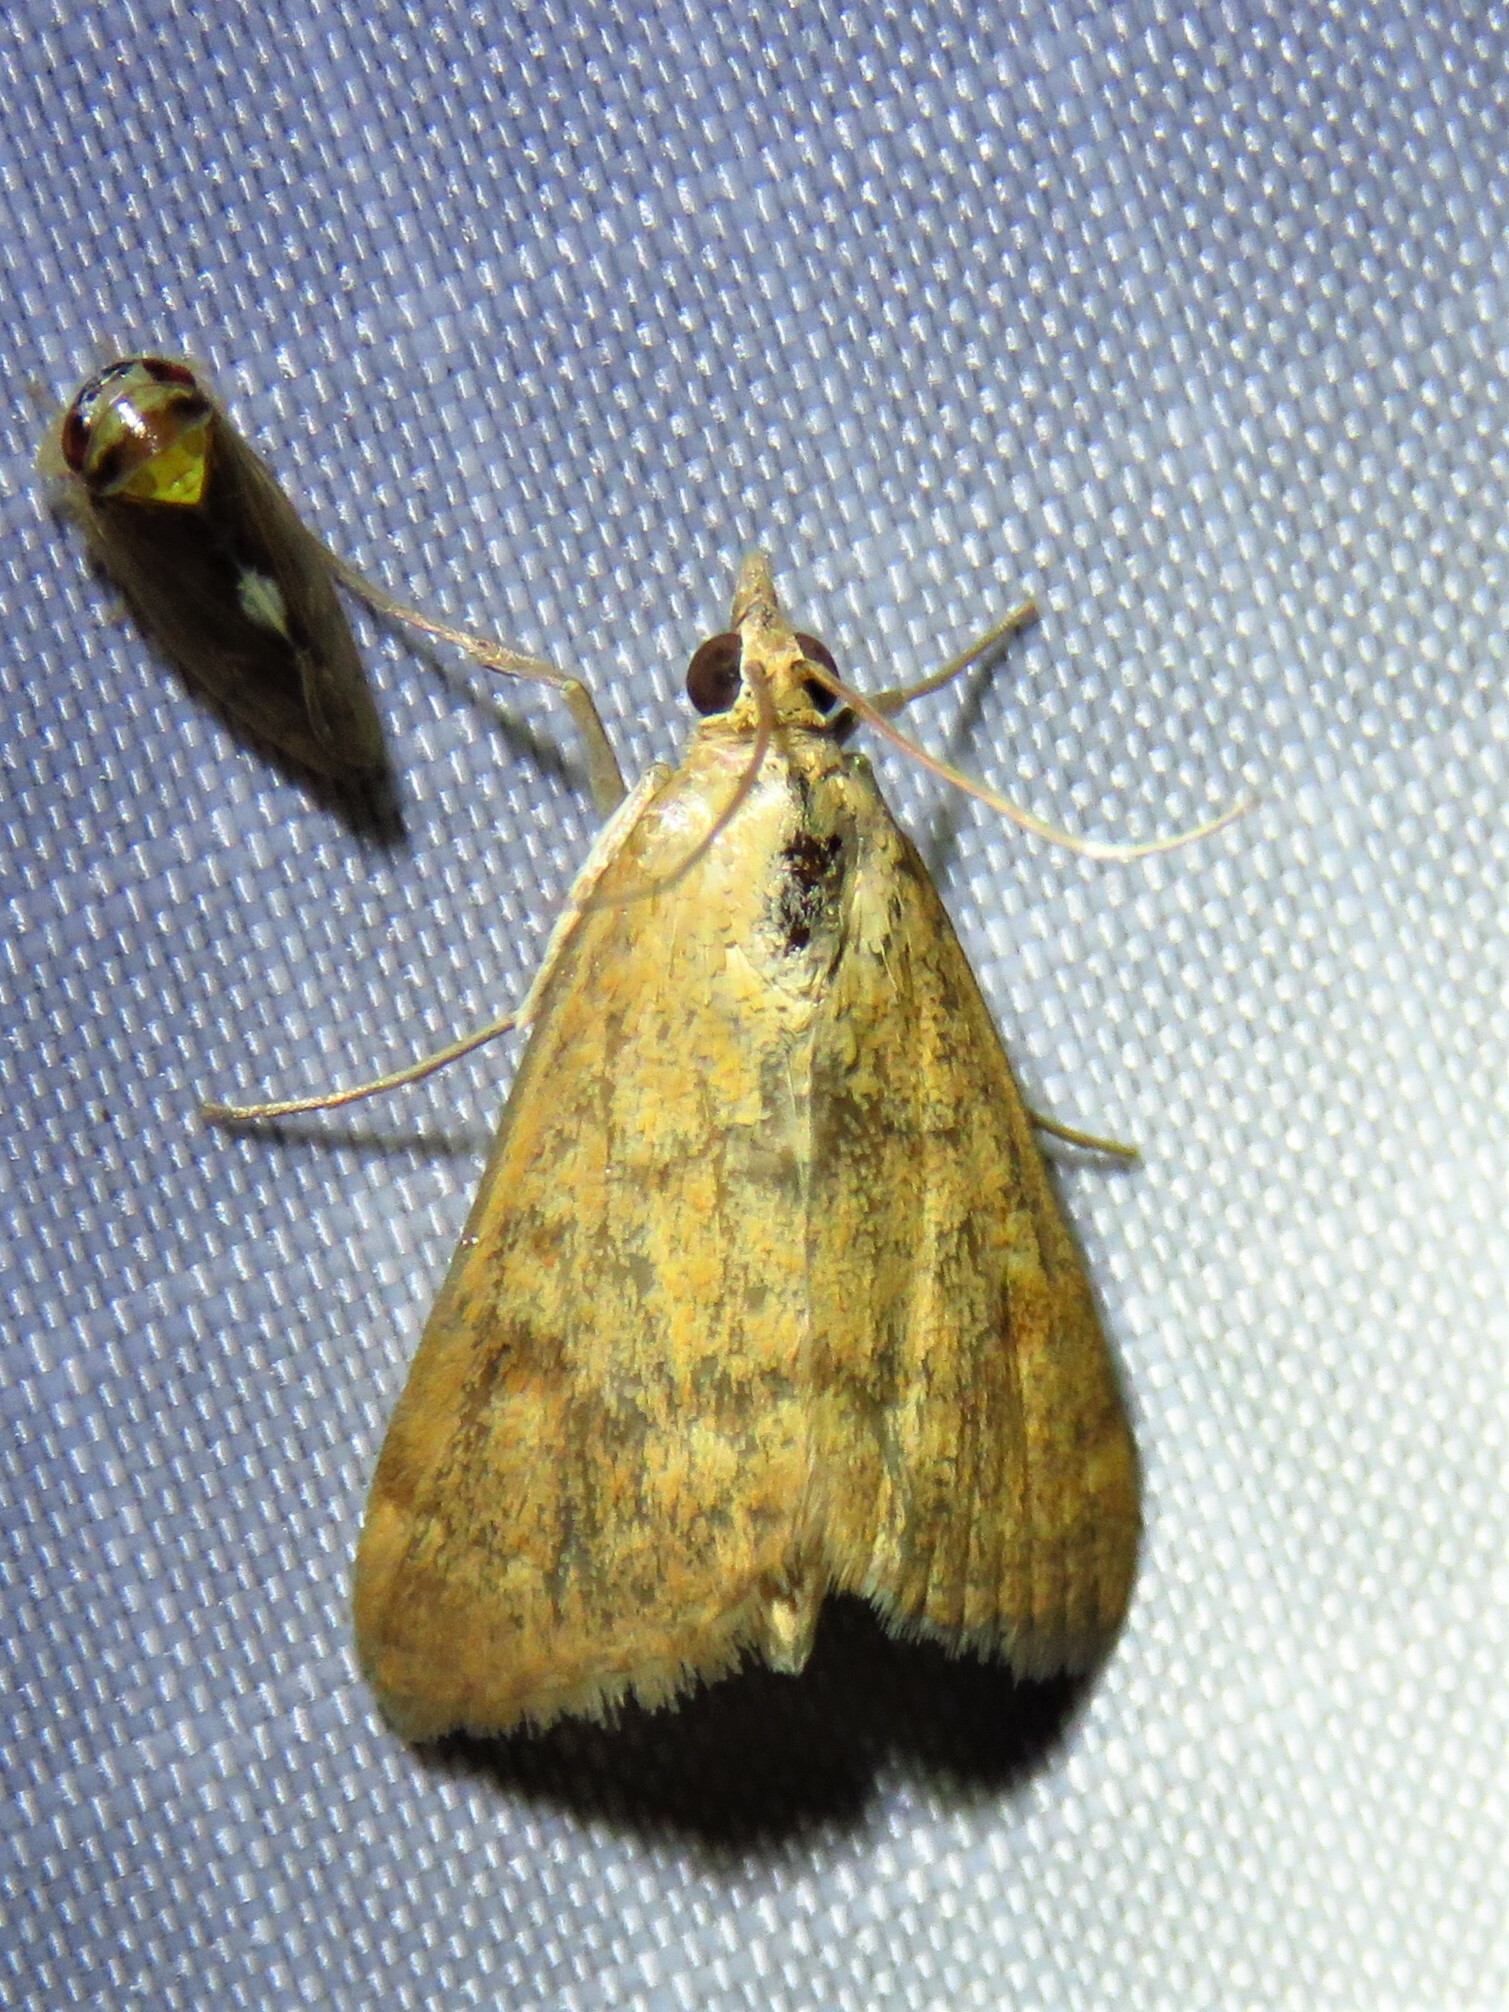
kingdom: Animalia
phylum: Arthropoda
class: Insecta
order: Lepidoptera
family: Crambidae
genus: Achyra
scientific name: Achyra rantalis
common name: Garden webworm
